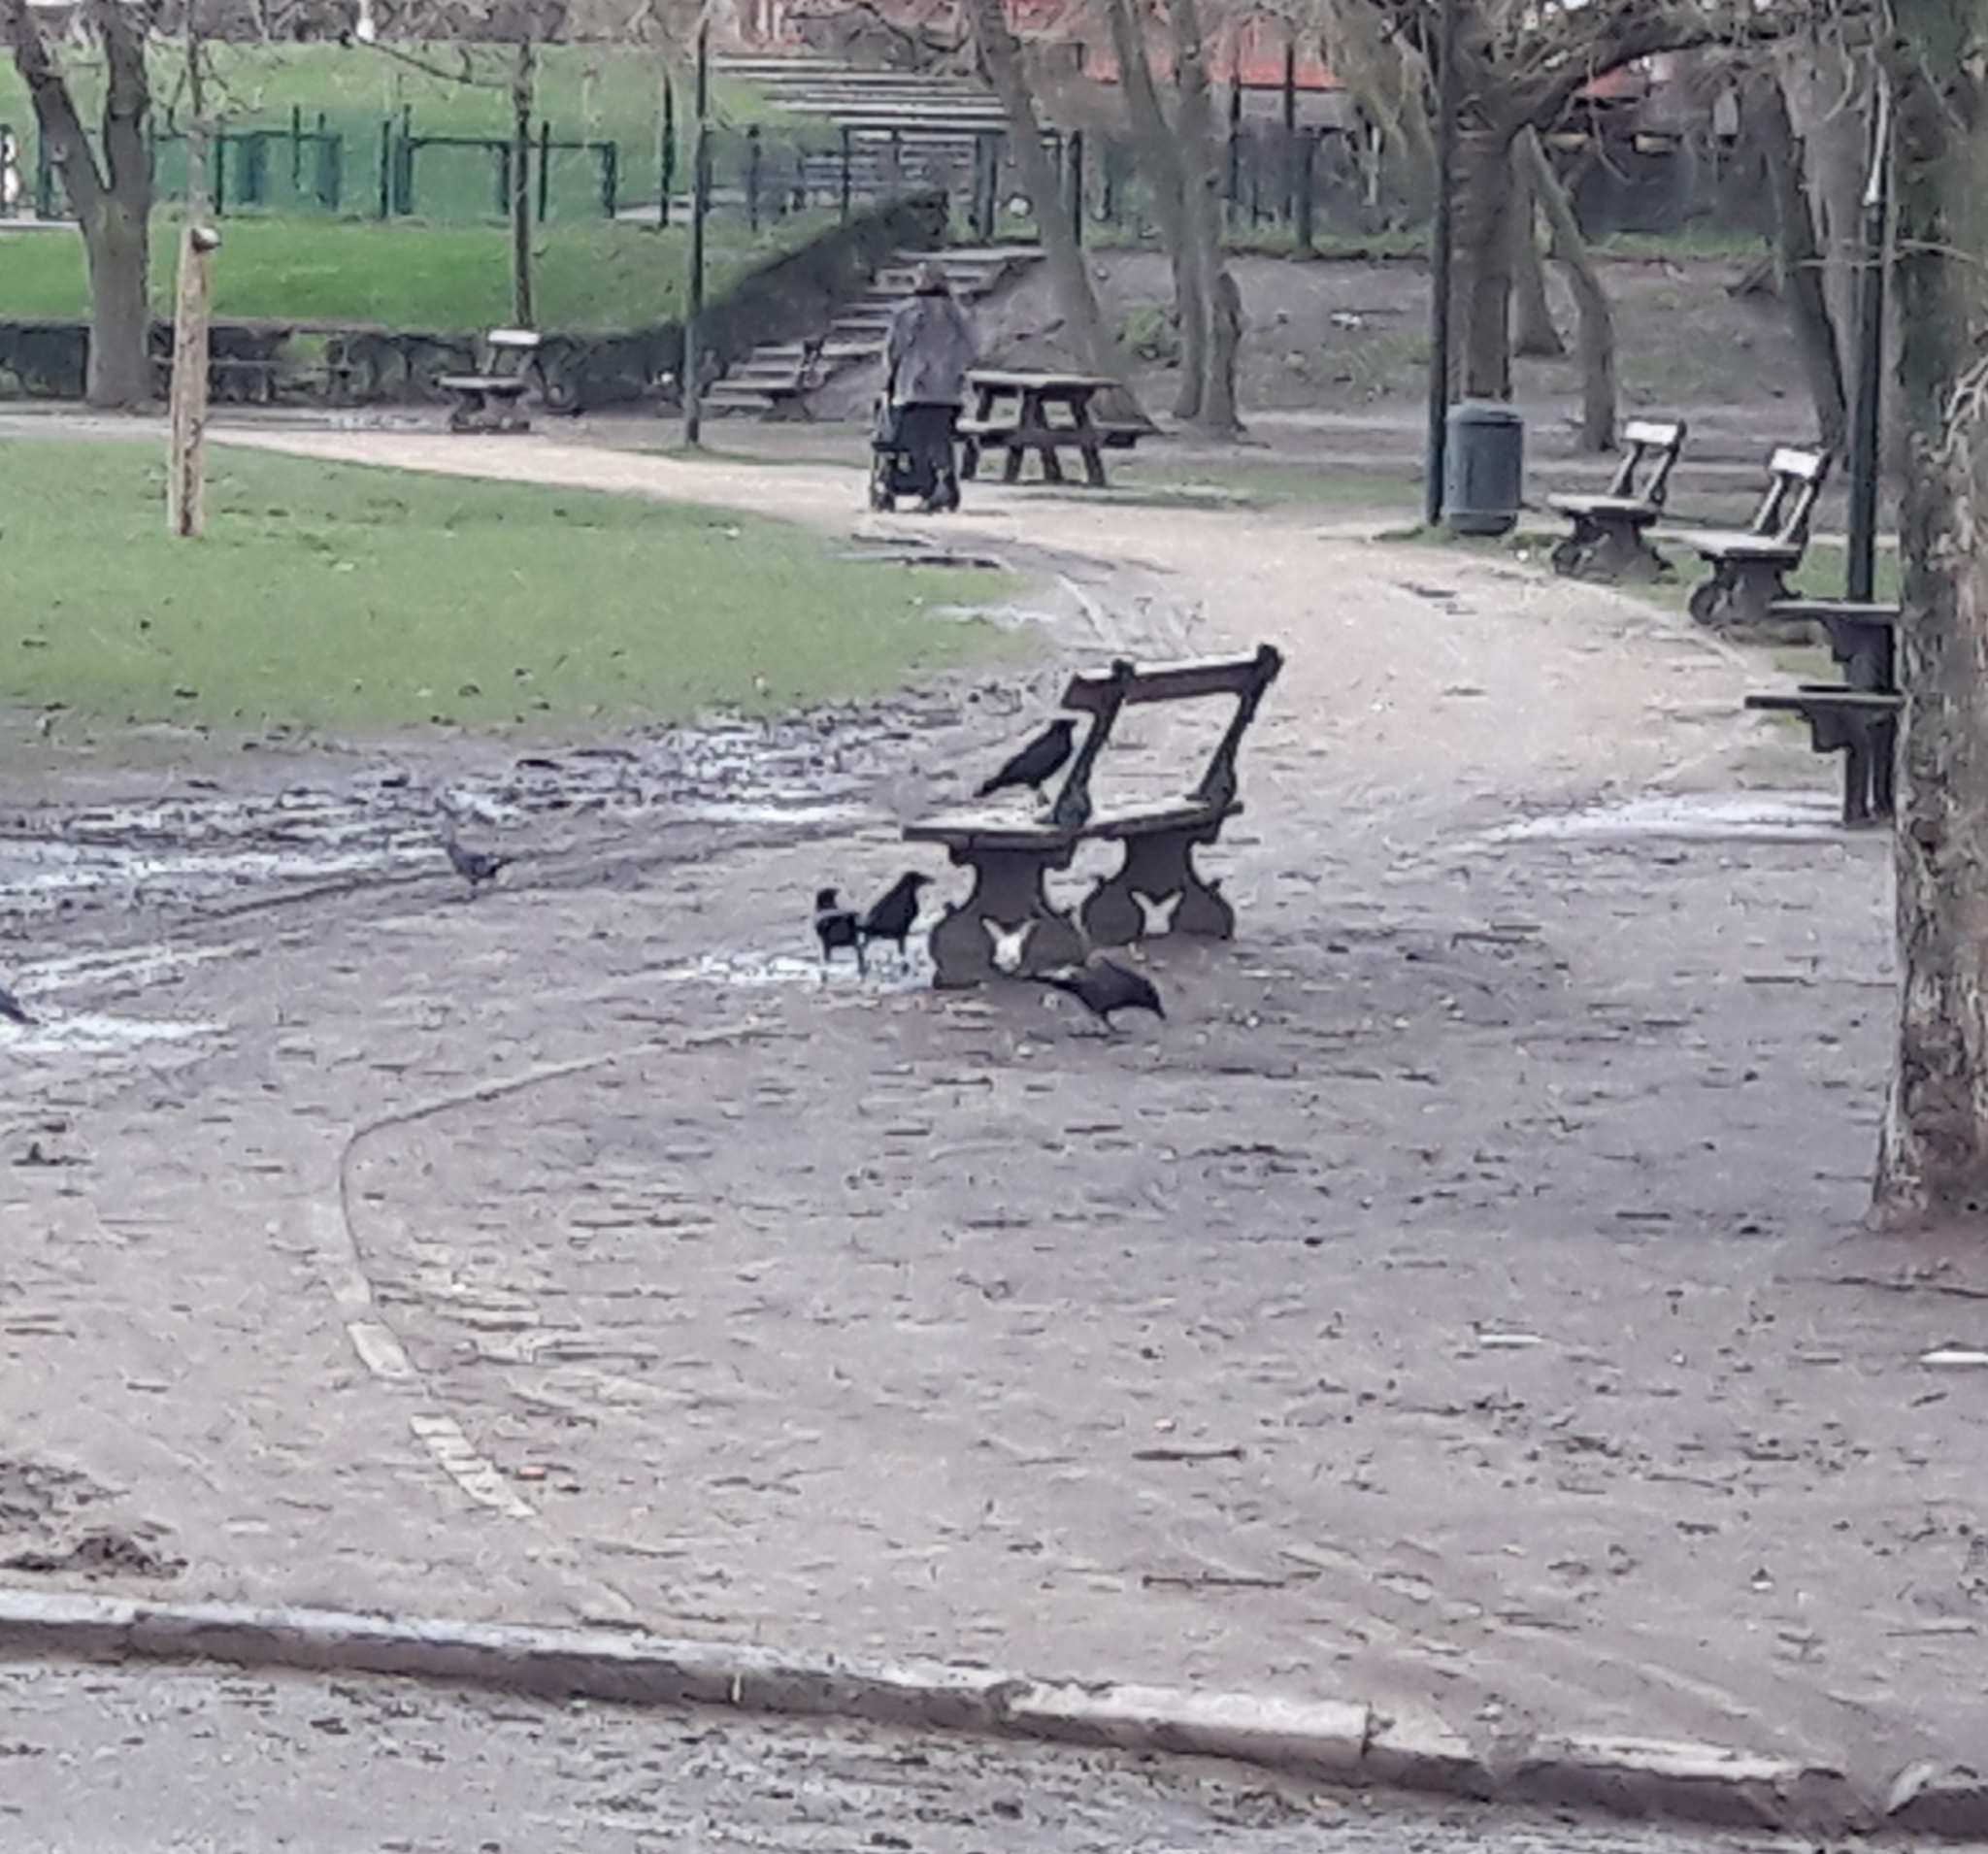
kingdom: Animalia
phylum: Chordata
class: Aves
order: Passeriformes
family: Corvidae
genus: Corvus
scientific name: Corvus corone
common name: Carrion crow
